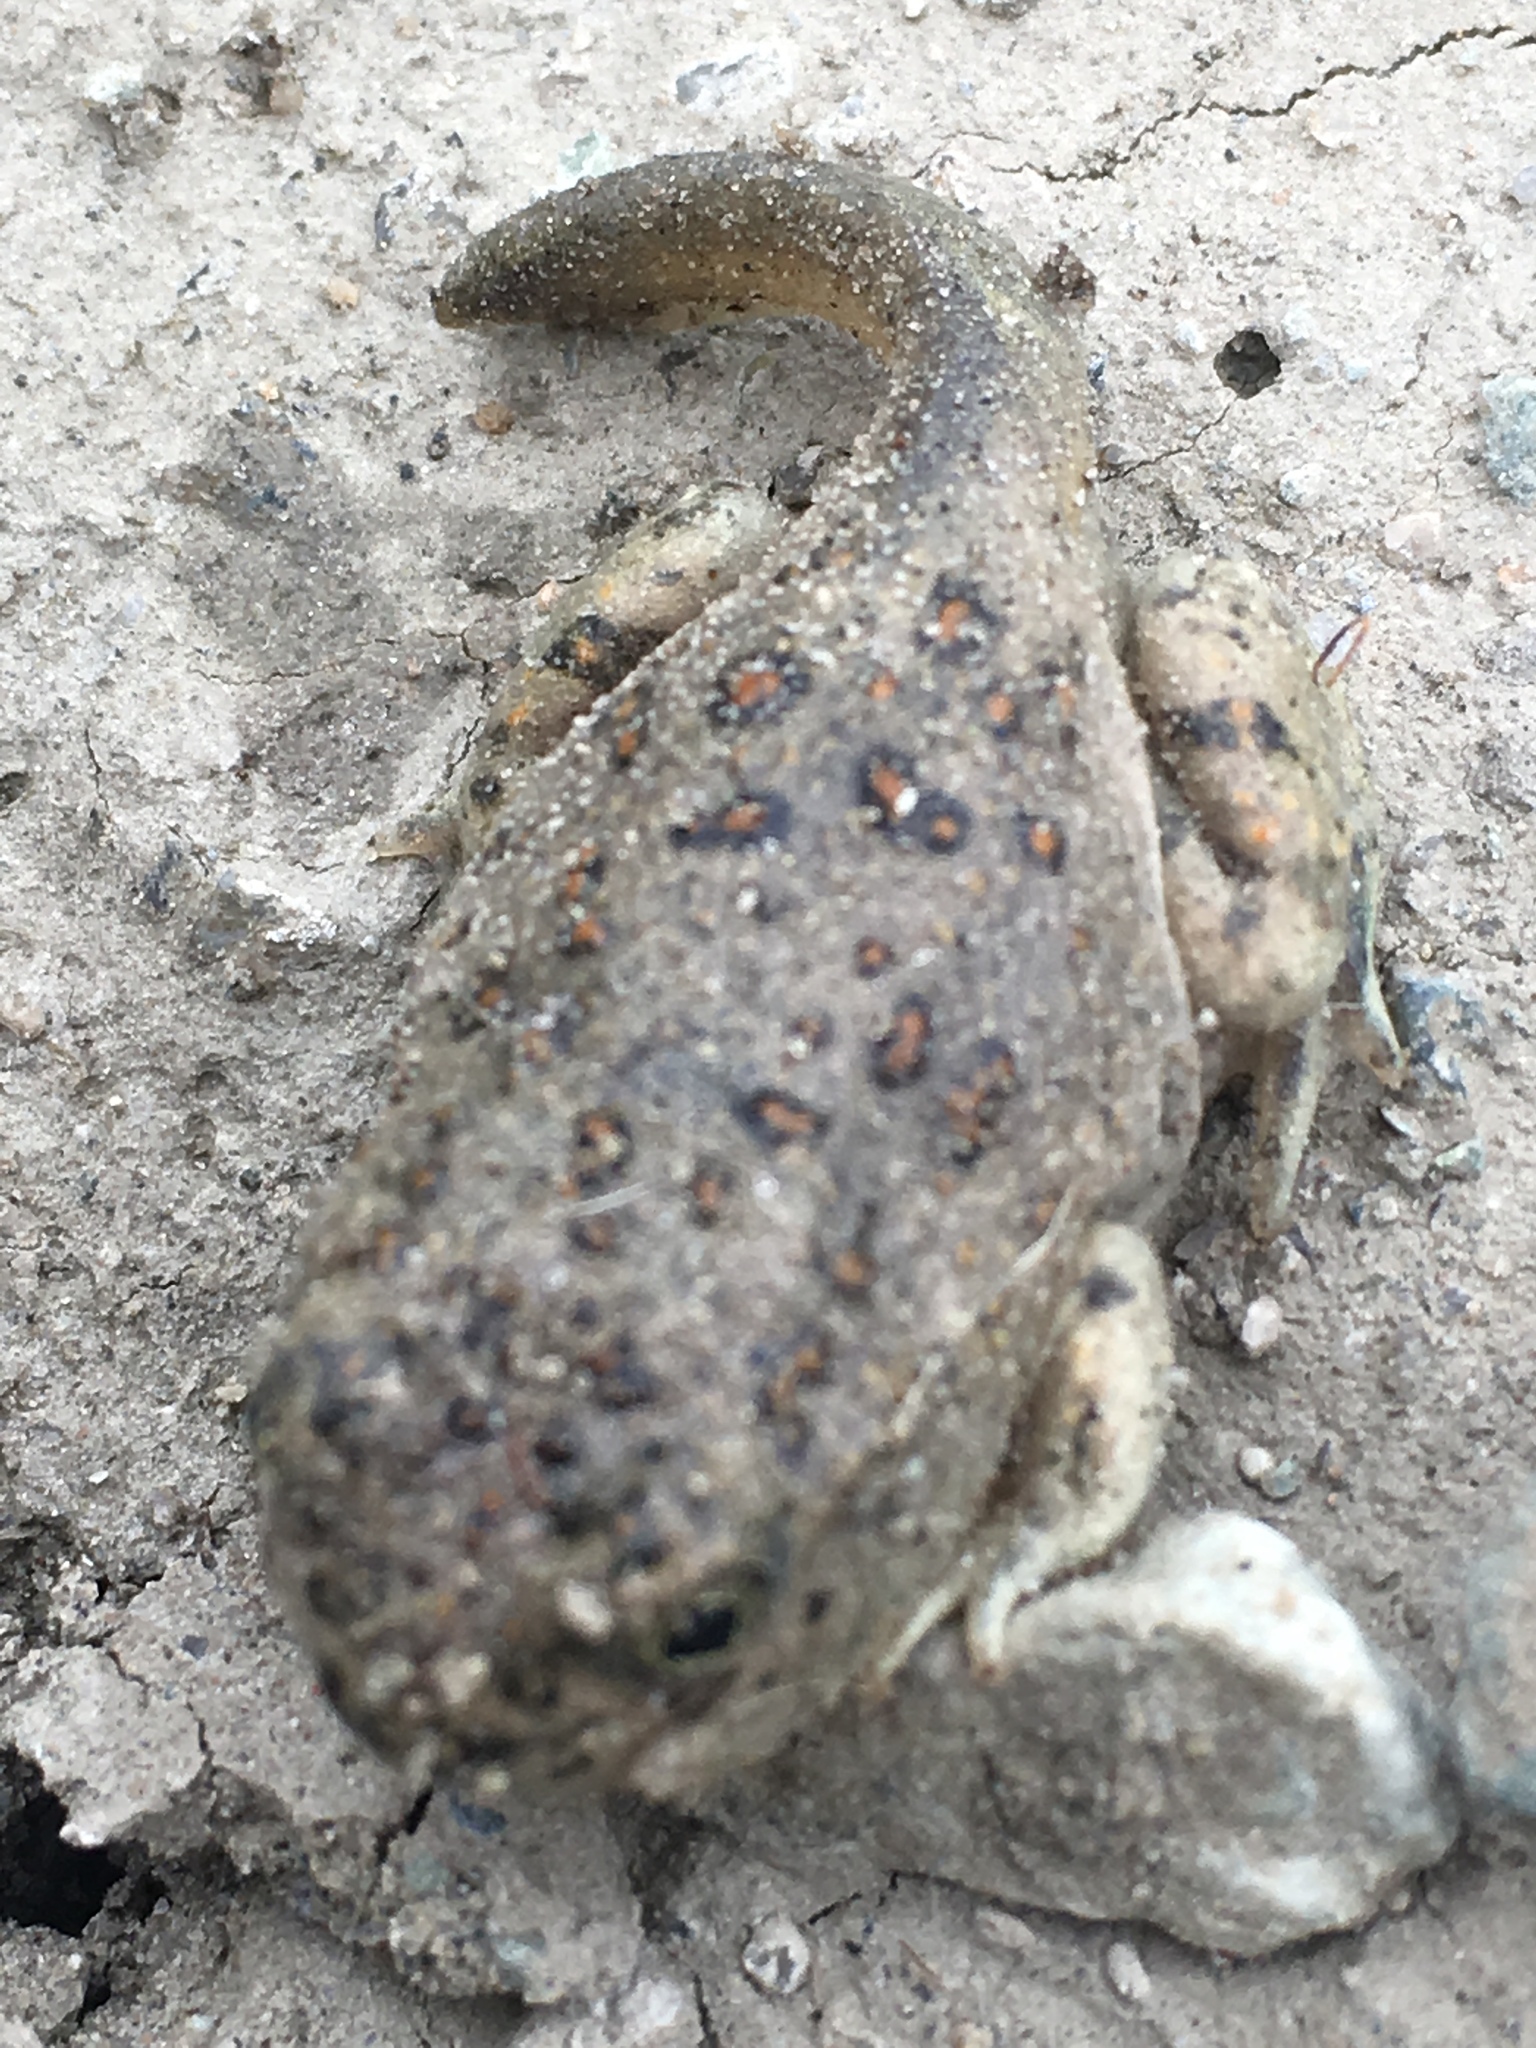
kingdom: Animalia
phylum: Chordata
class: Amphibia
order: Anura
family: Scaphiopodidae
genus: Spea
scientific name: Spea hammondii
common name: Western spadefoot toad
